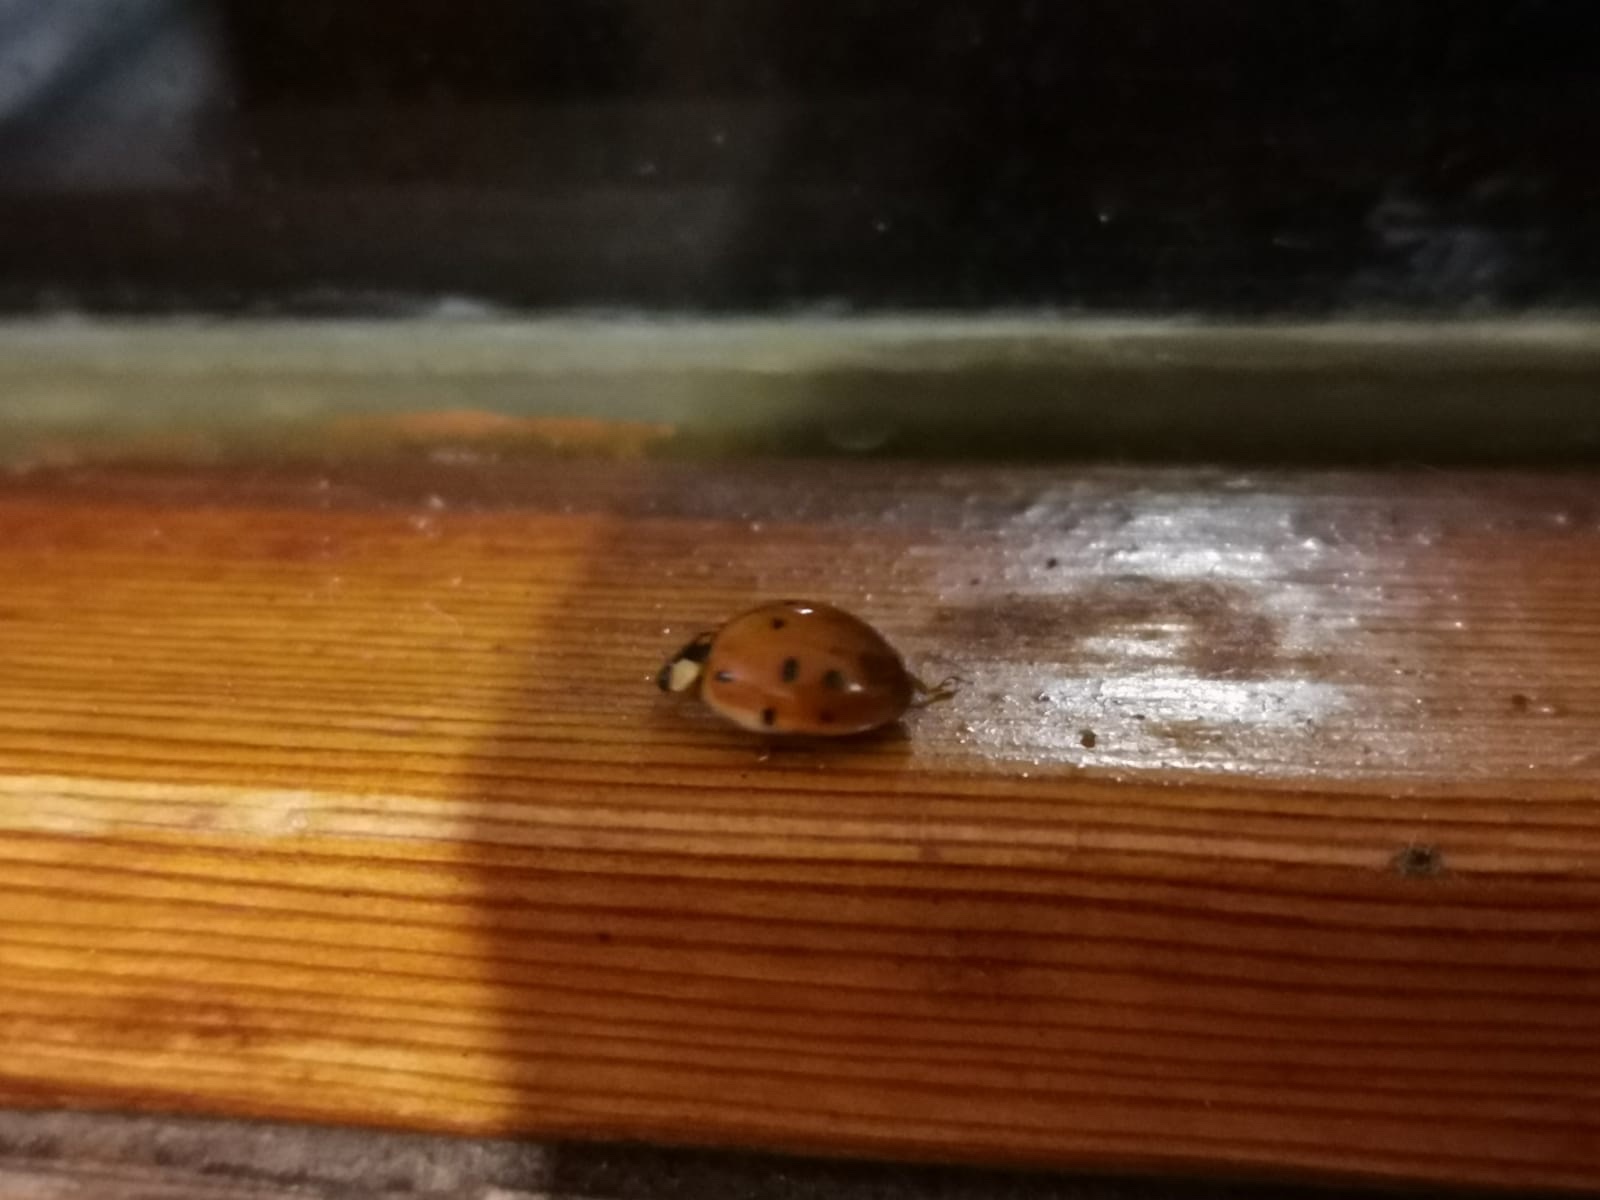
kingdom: Animalia
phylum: Arthropoda
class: Insecta
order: Coleoptera
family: Coccinellidae
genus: Harmonia
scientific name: Harmonia axyridis
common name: Harlequin ladybird
